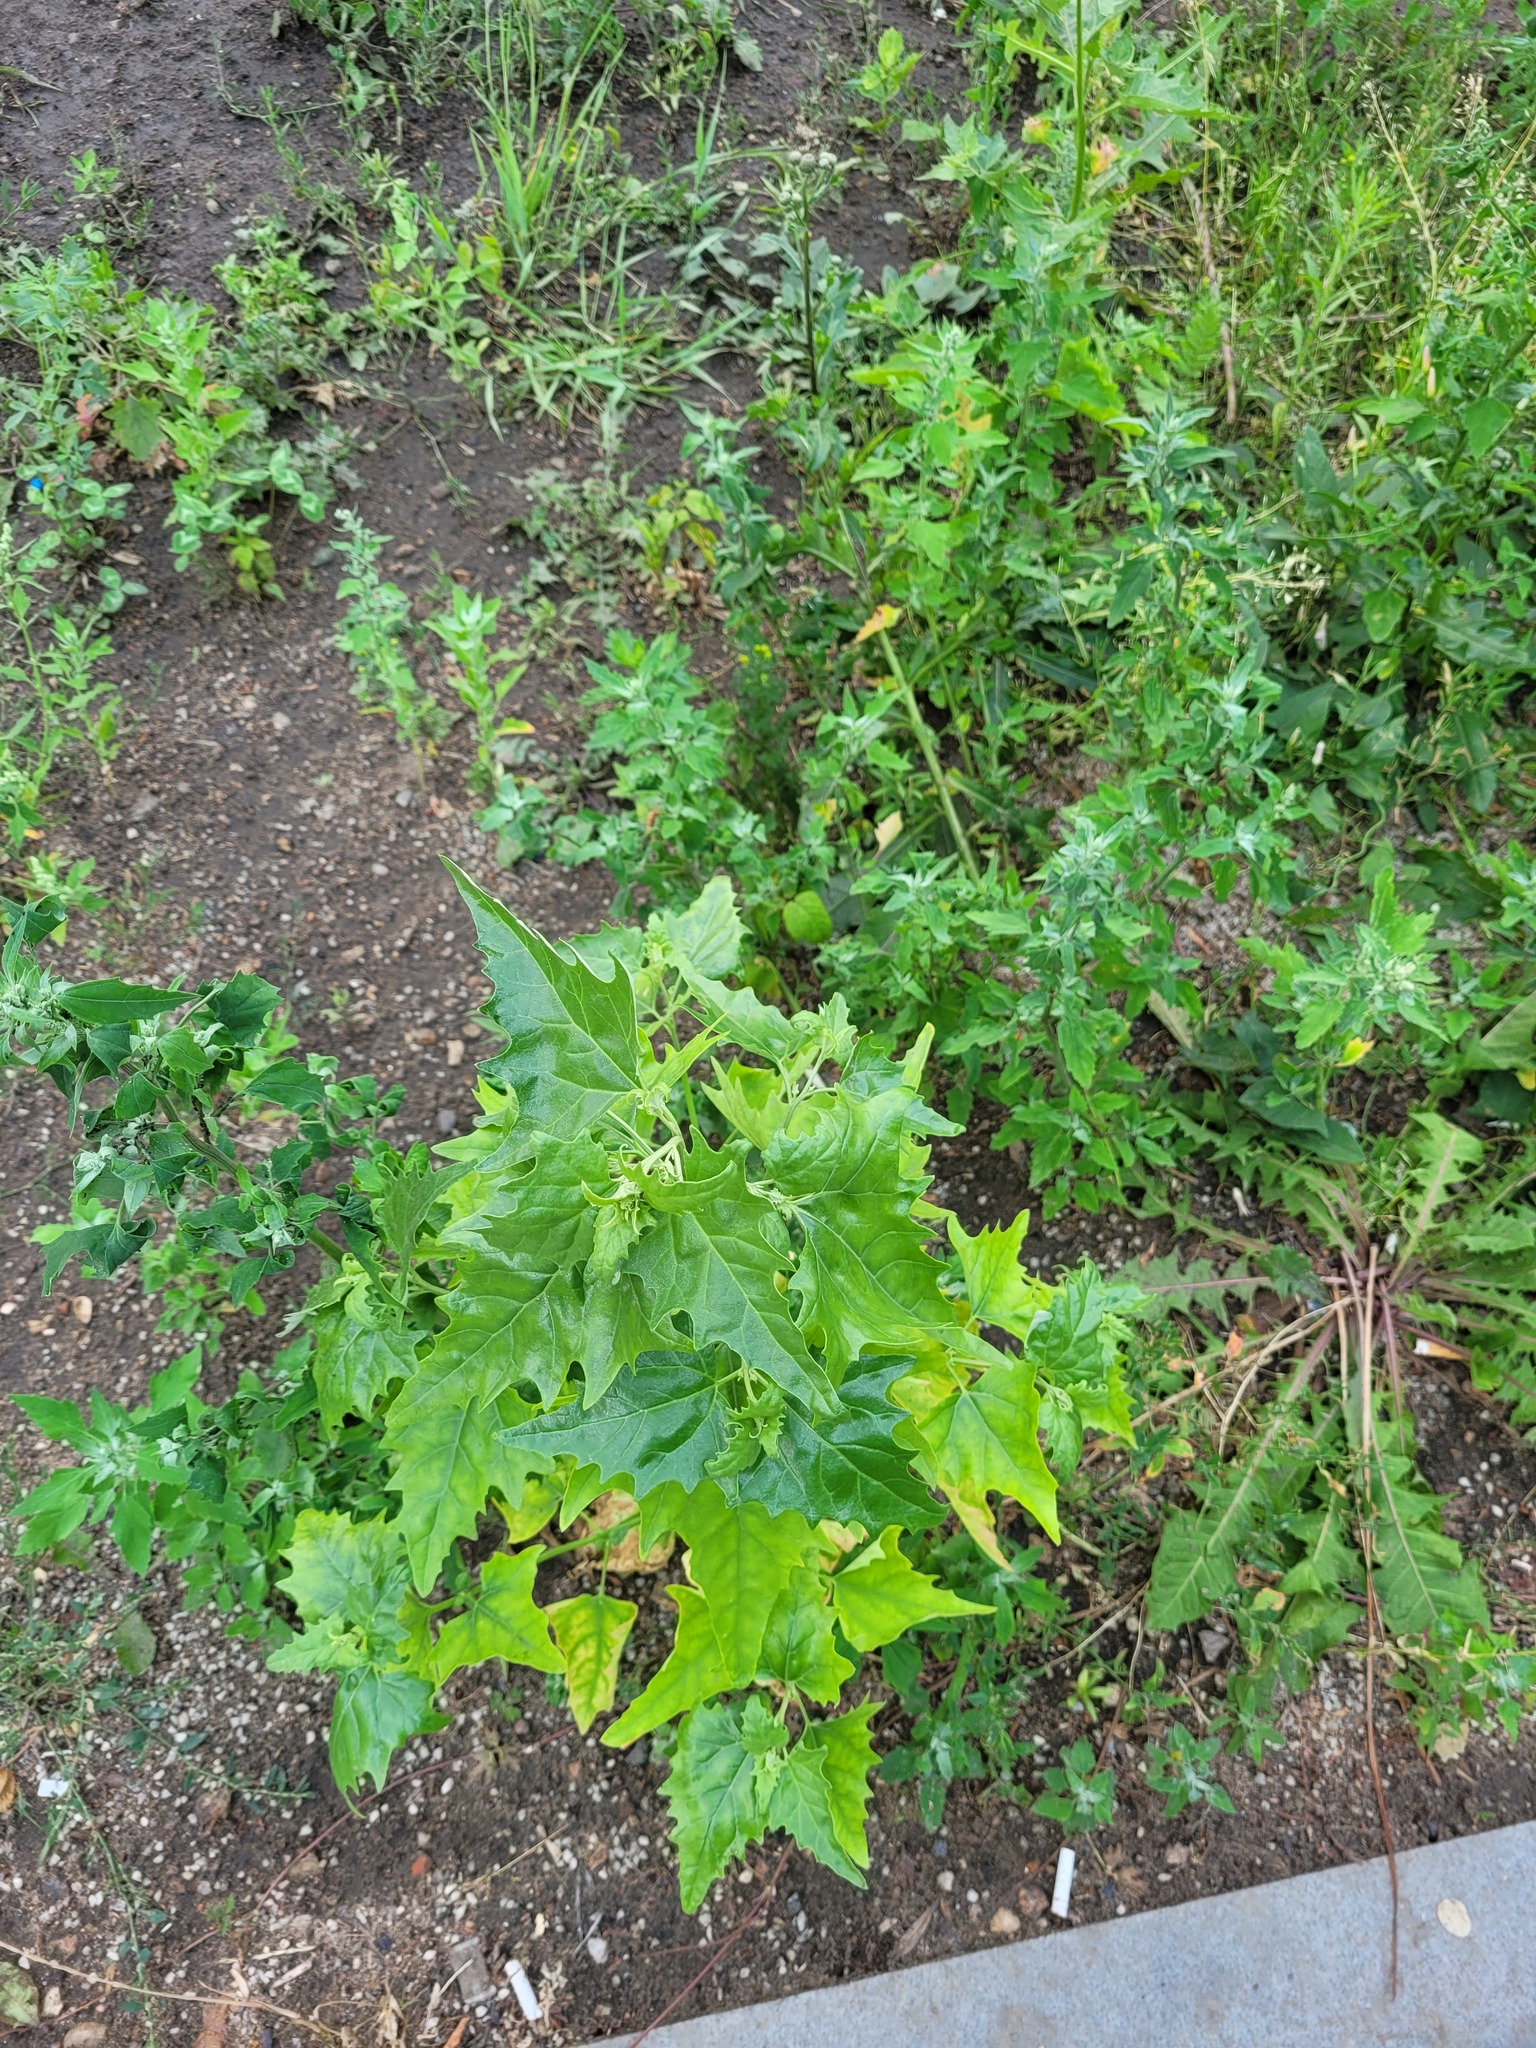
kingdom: Plantae
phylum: Tracheophyta
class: Magnoliopsida
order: Caryophyllales
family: Amaranthaceae
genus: Atriplex
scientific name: Atriplex sagittata
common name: Purple orache
